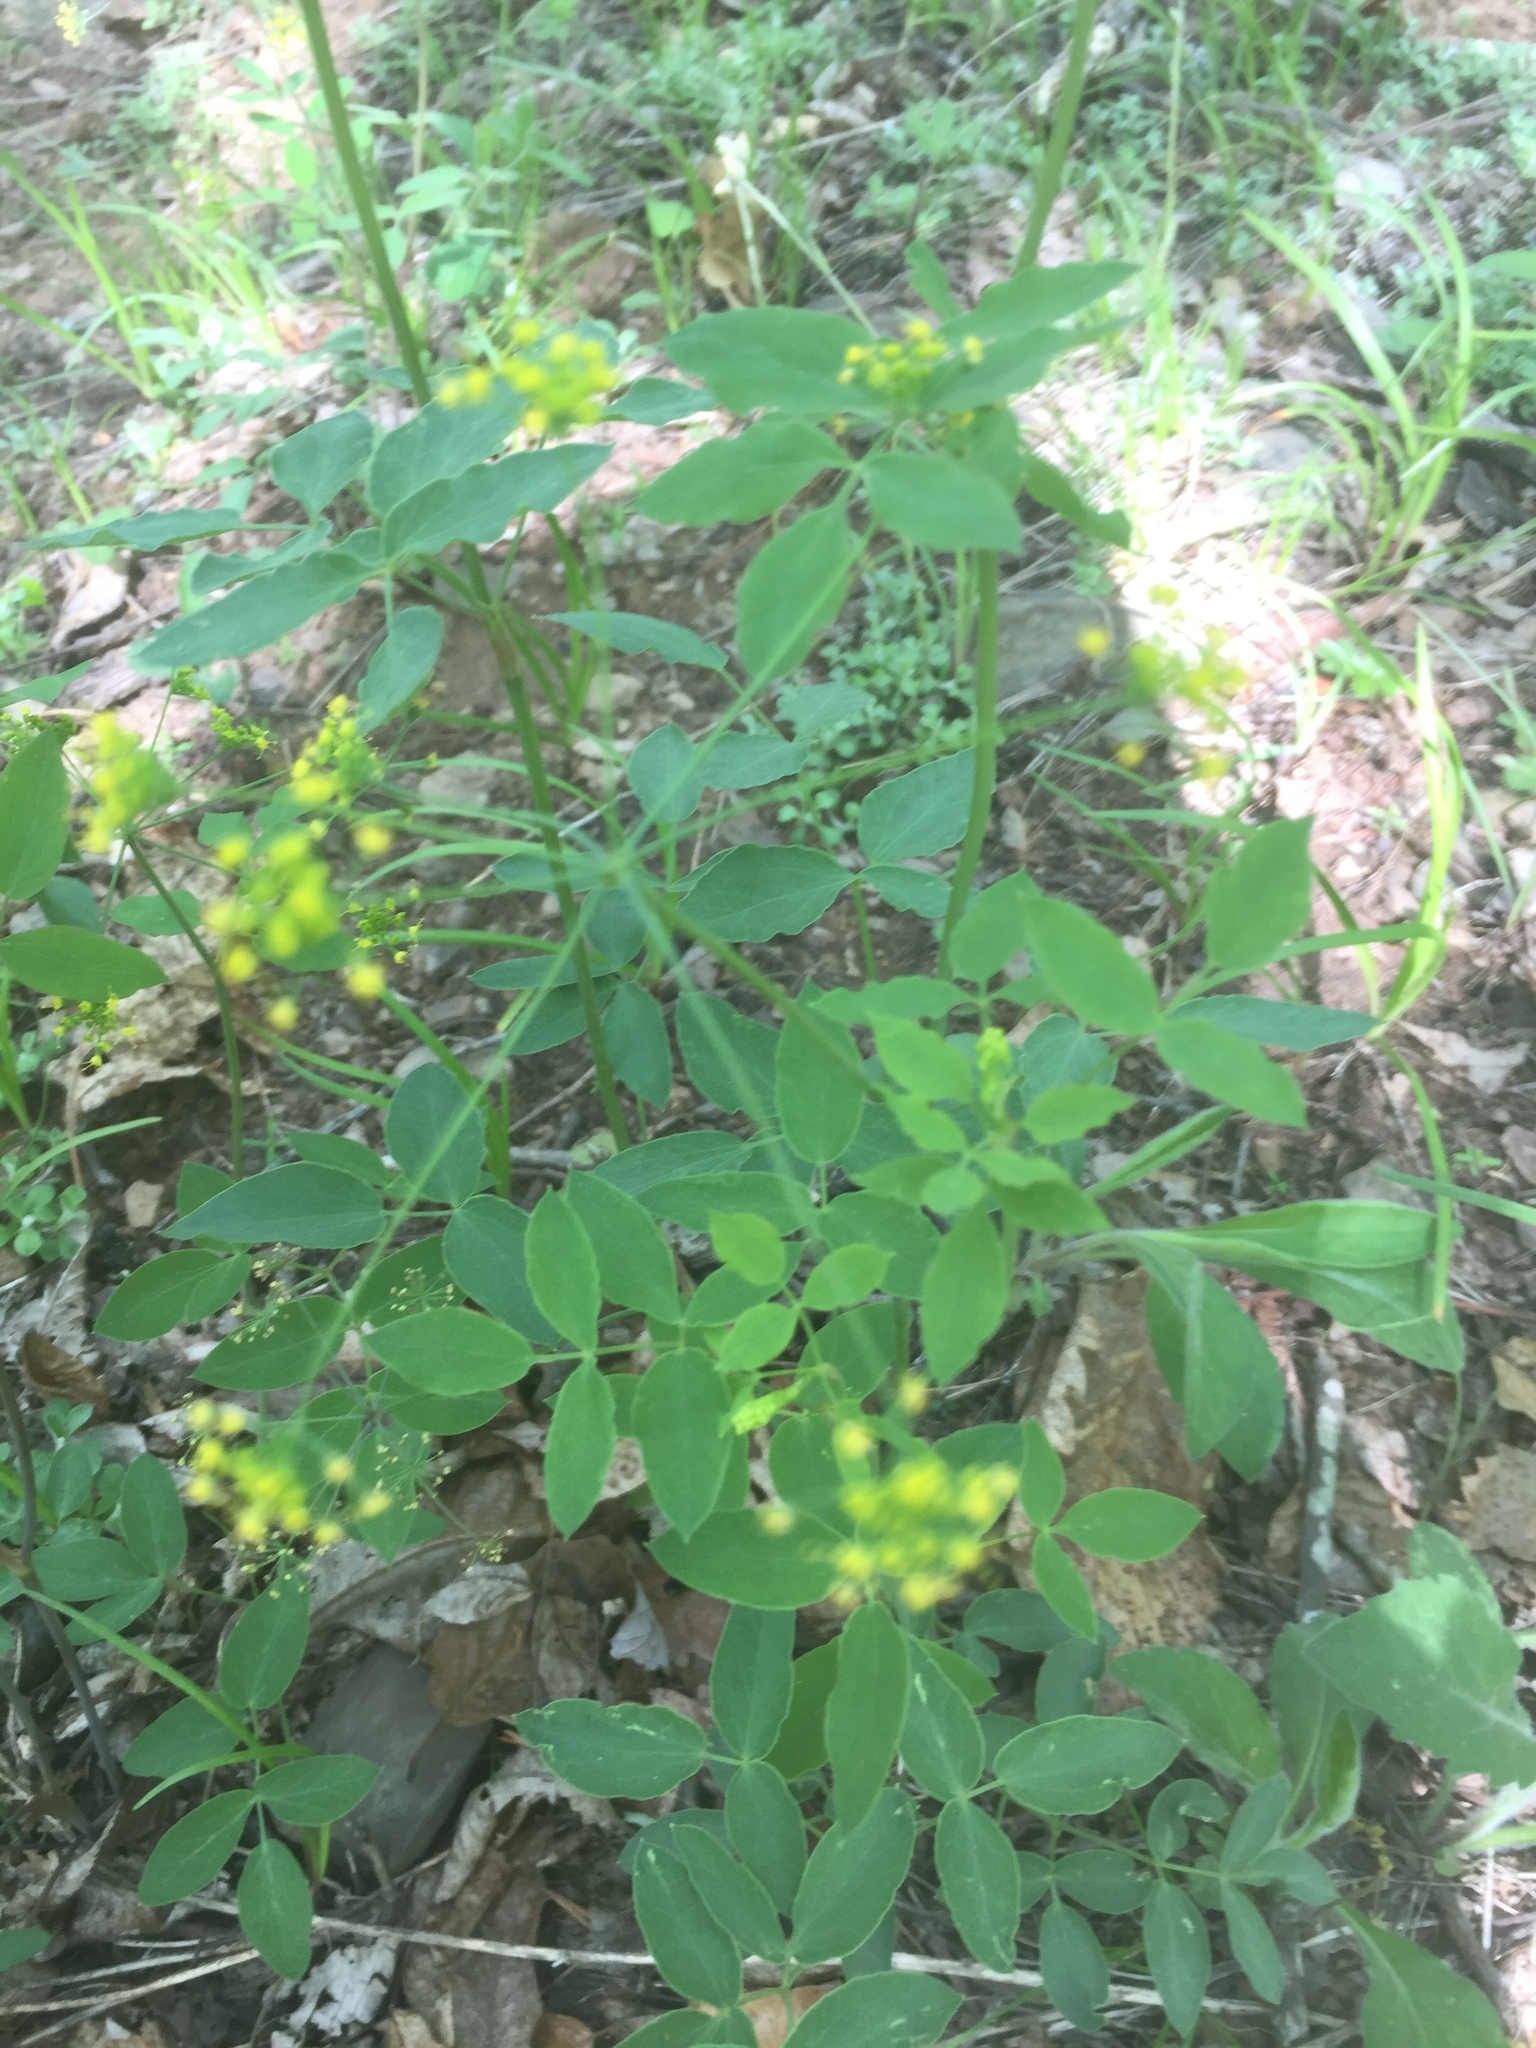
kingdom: Plantae
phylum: Tracheophyta
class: Magnoliopsida
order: Apiales
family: Apiaceae
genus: Taenidia
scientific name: Taenidia integerrima
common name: Golden alexander
